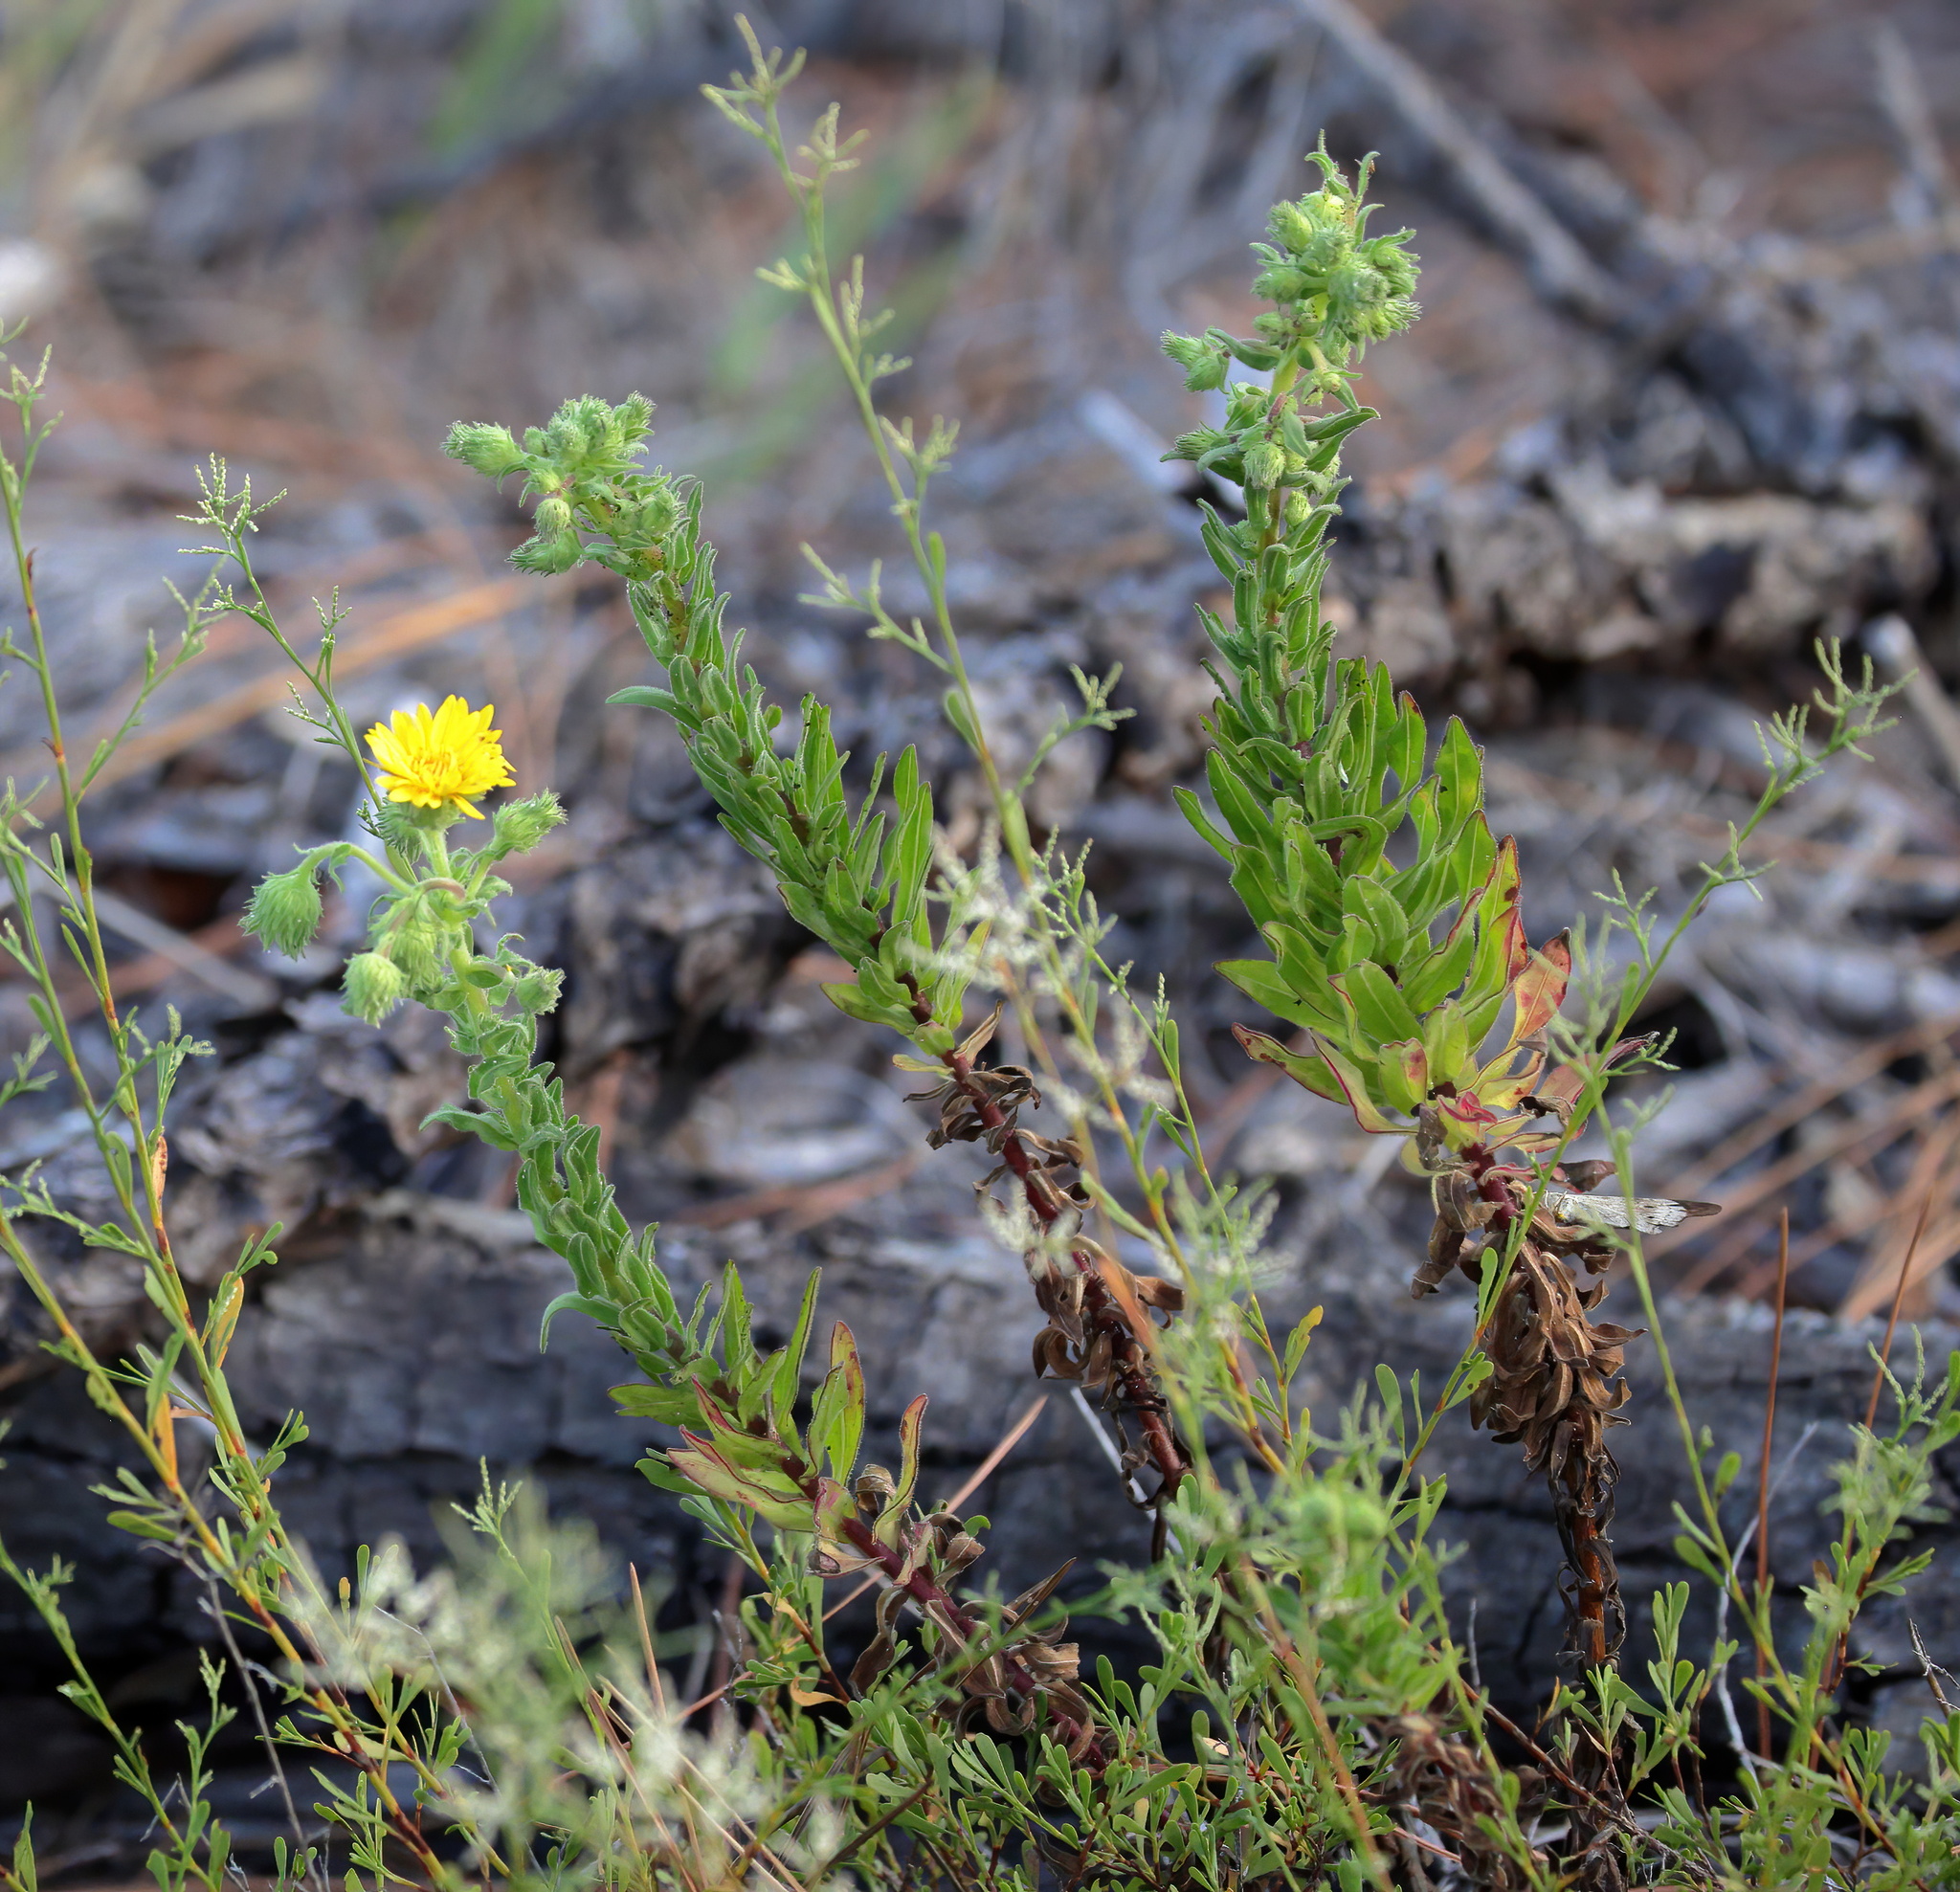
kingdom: Plantae
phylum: Tracheophyta
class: Magnoliopsida
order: Asterales
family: Asteraceae
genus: Chrysopsis
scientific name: Chrysopsis godfreyi
